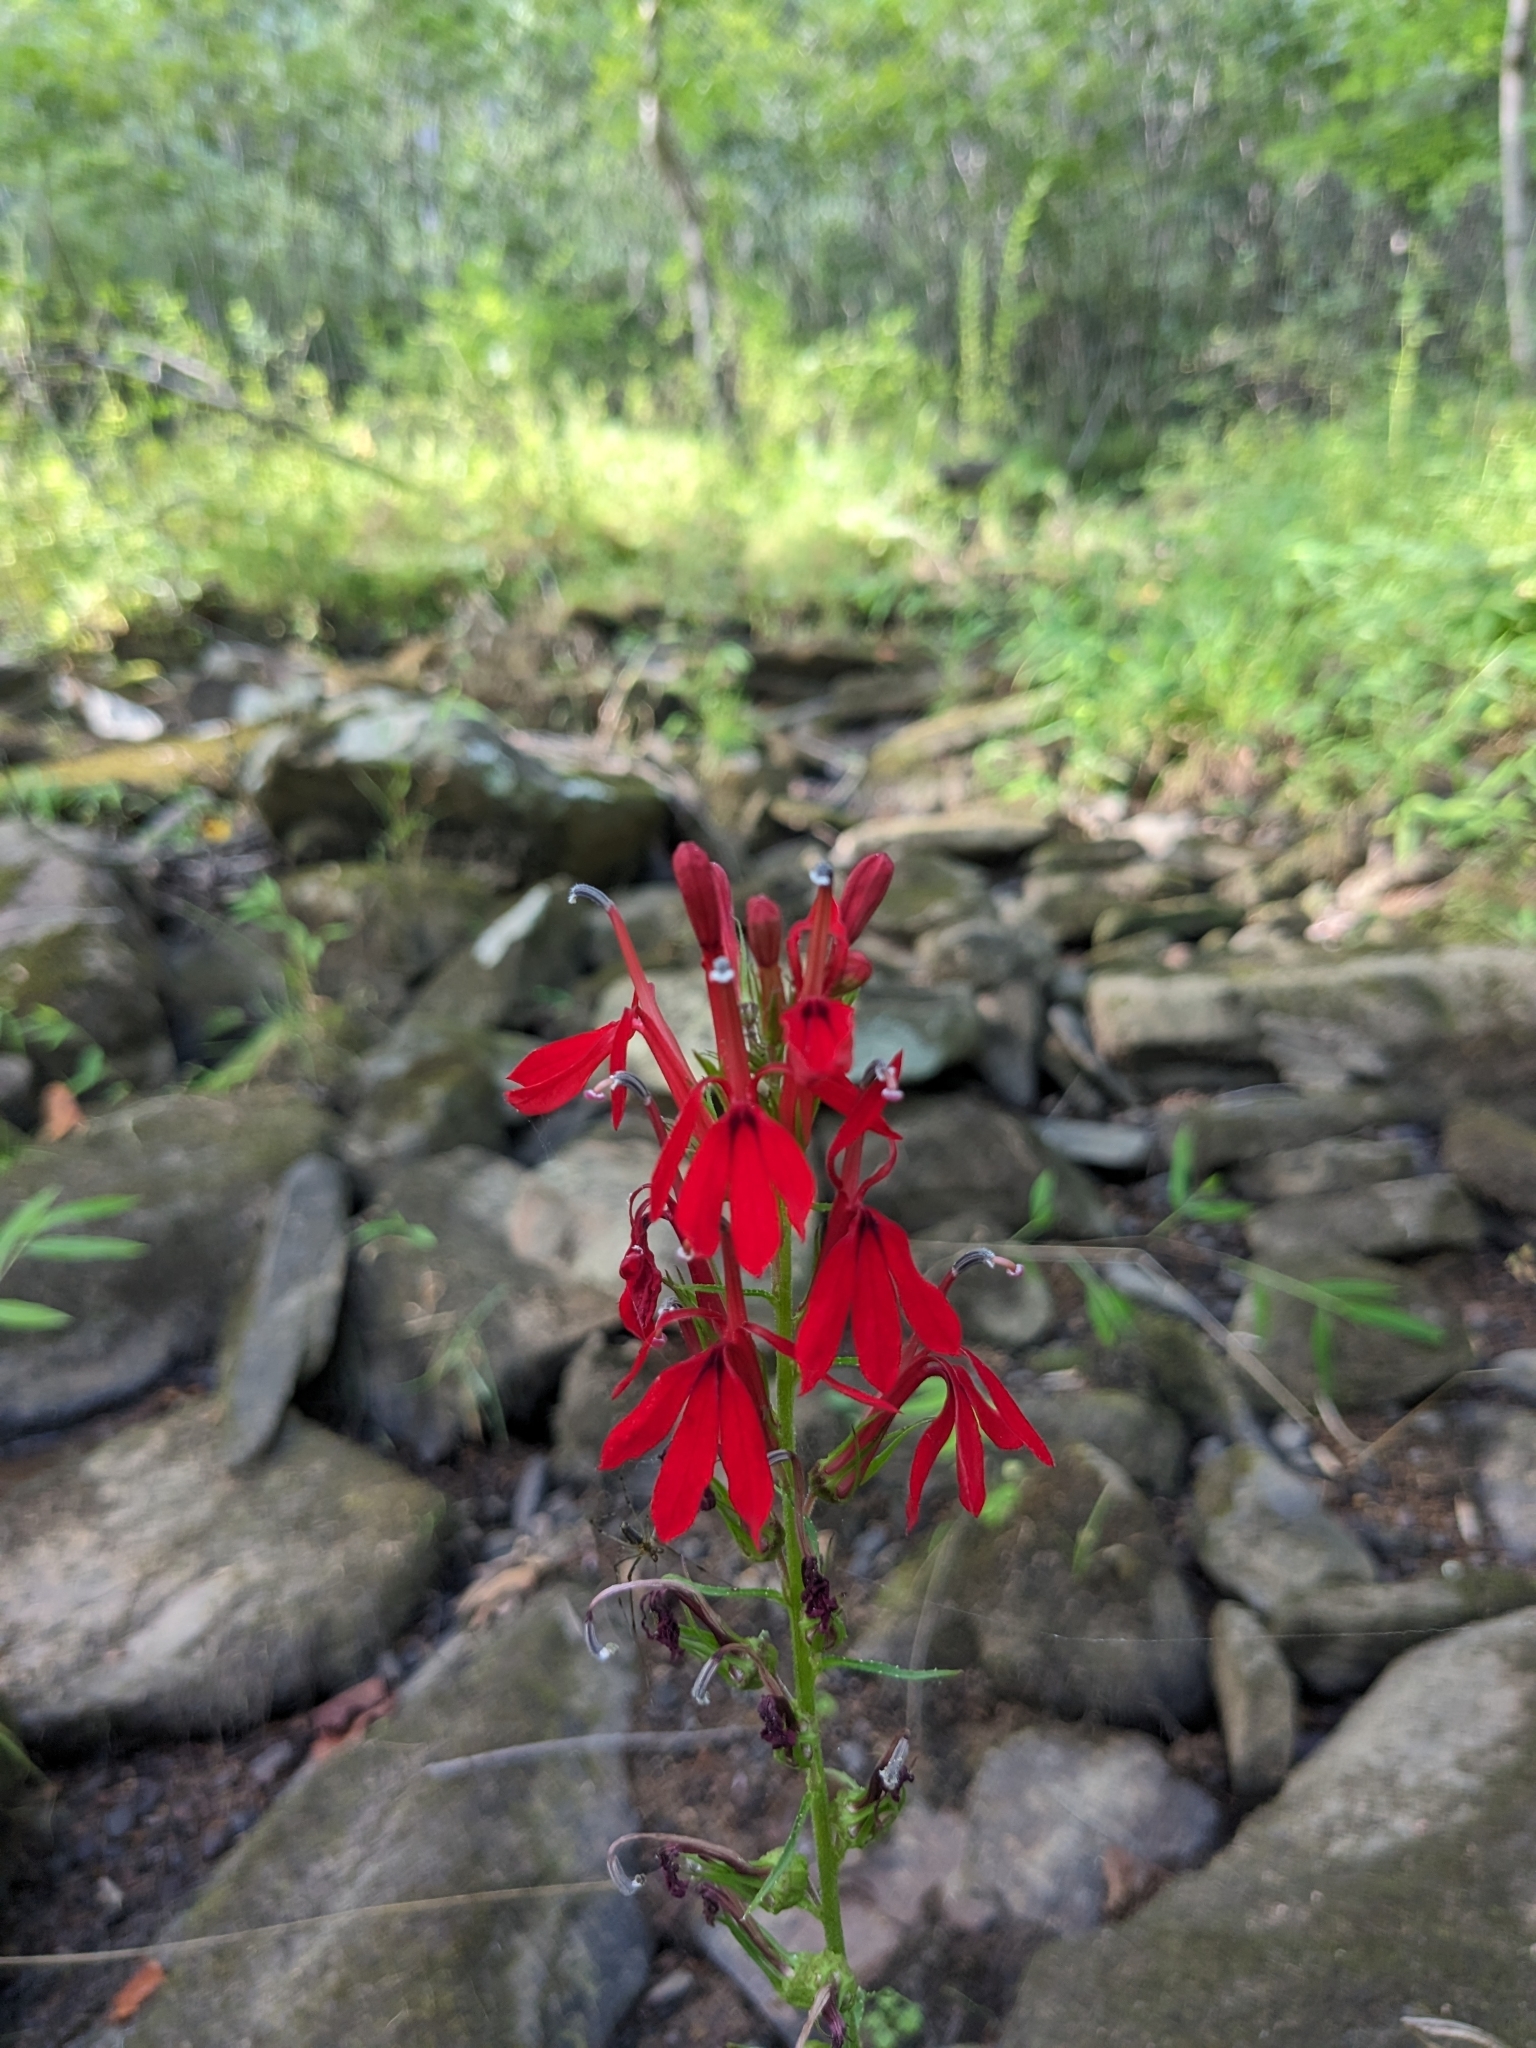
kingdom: Plantae
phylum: Tracheophyta
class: Magnoliopsida
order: Asterales
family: Campanulaceae
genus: Lobelia
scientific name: Lobelia cardinalis
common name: Cardinal flower
